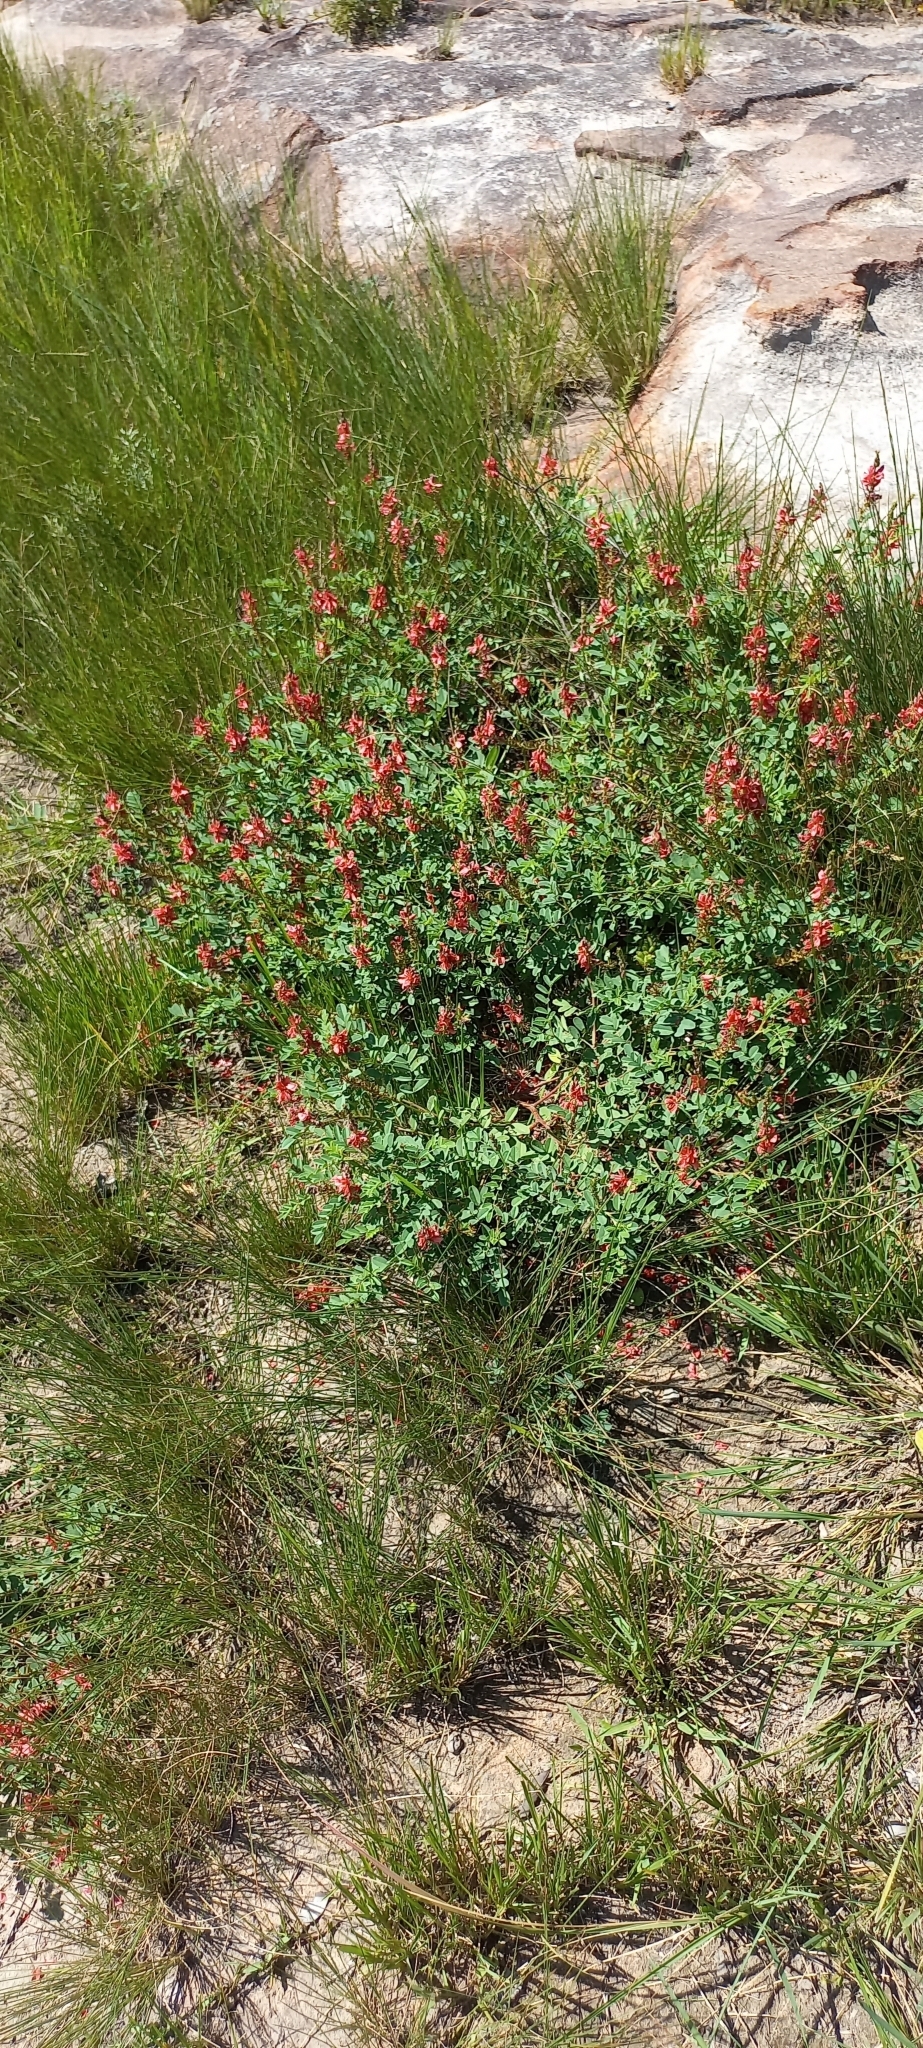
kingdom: Plantae
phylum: Tracheophyta
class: Magnoliopsida
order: Fabales
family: Fabaceae
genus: Indigofera
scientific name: Indigofera williamsonii
